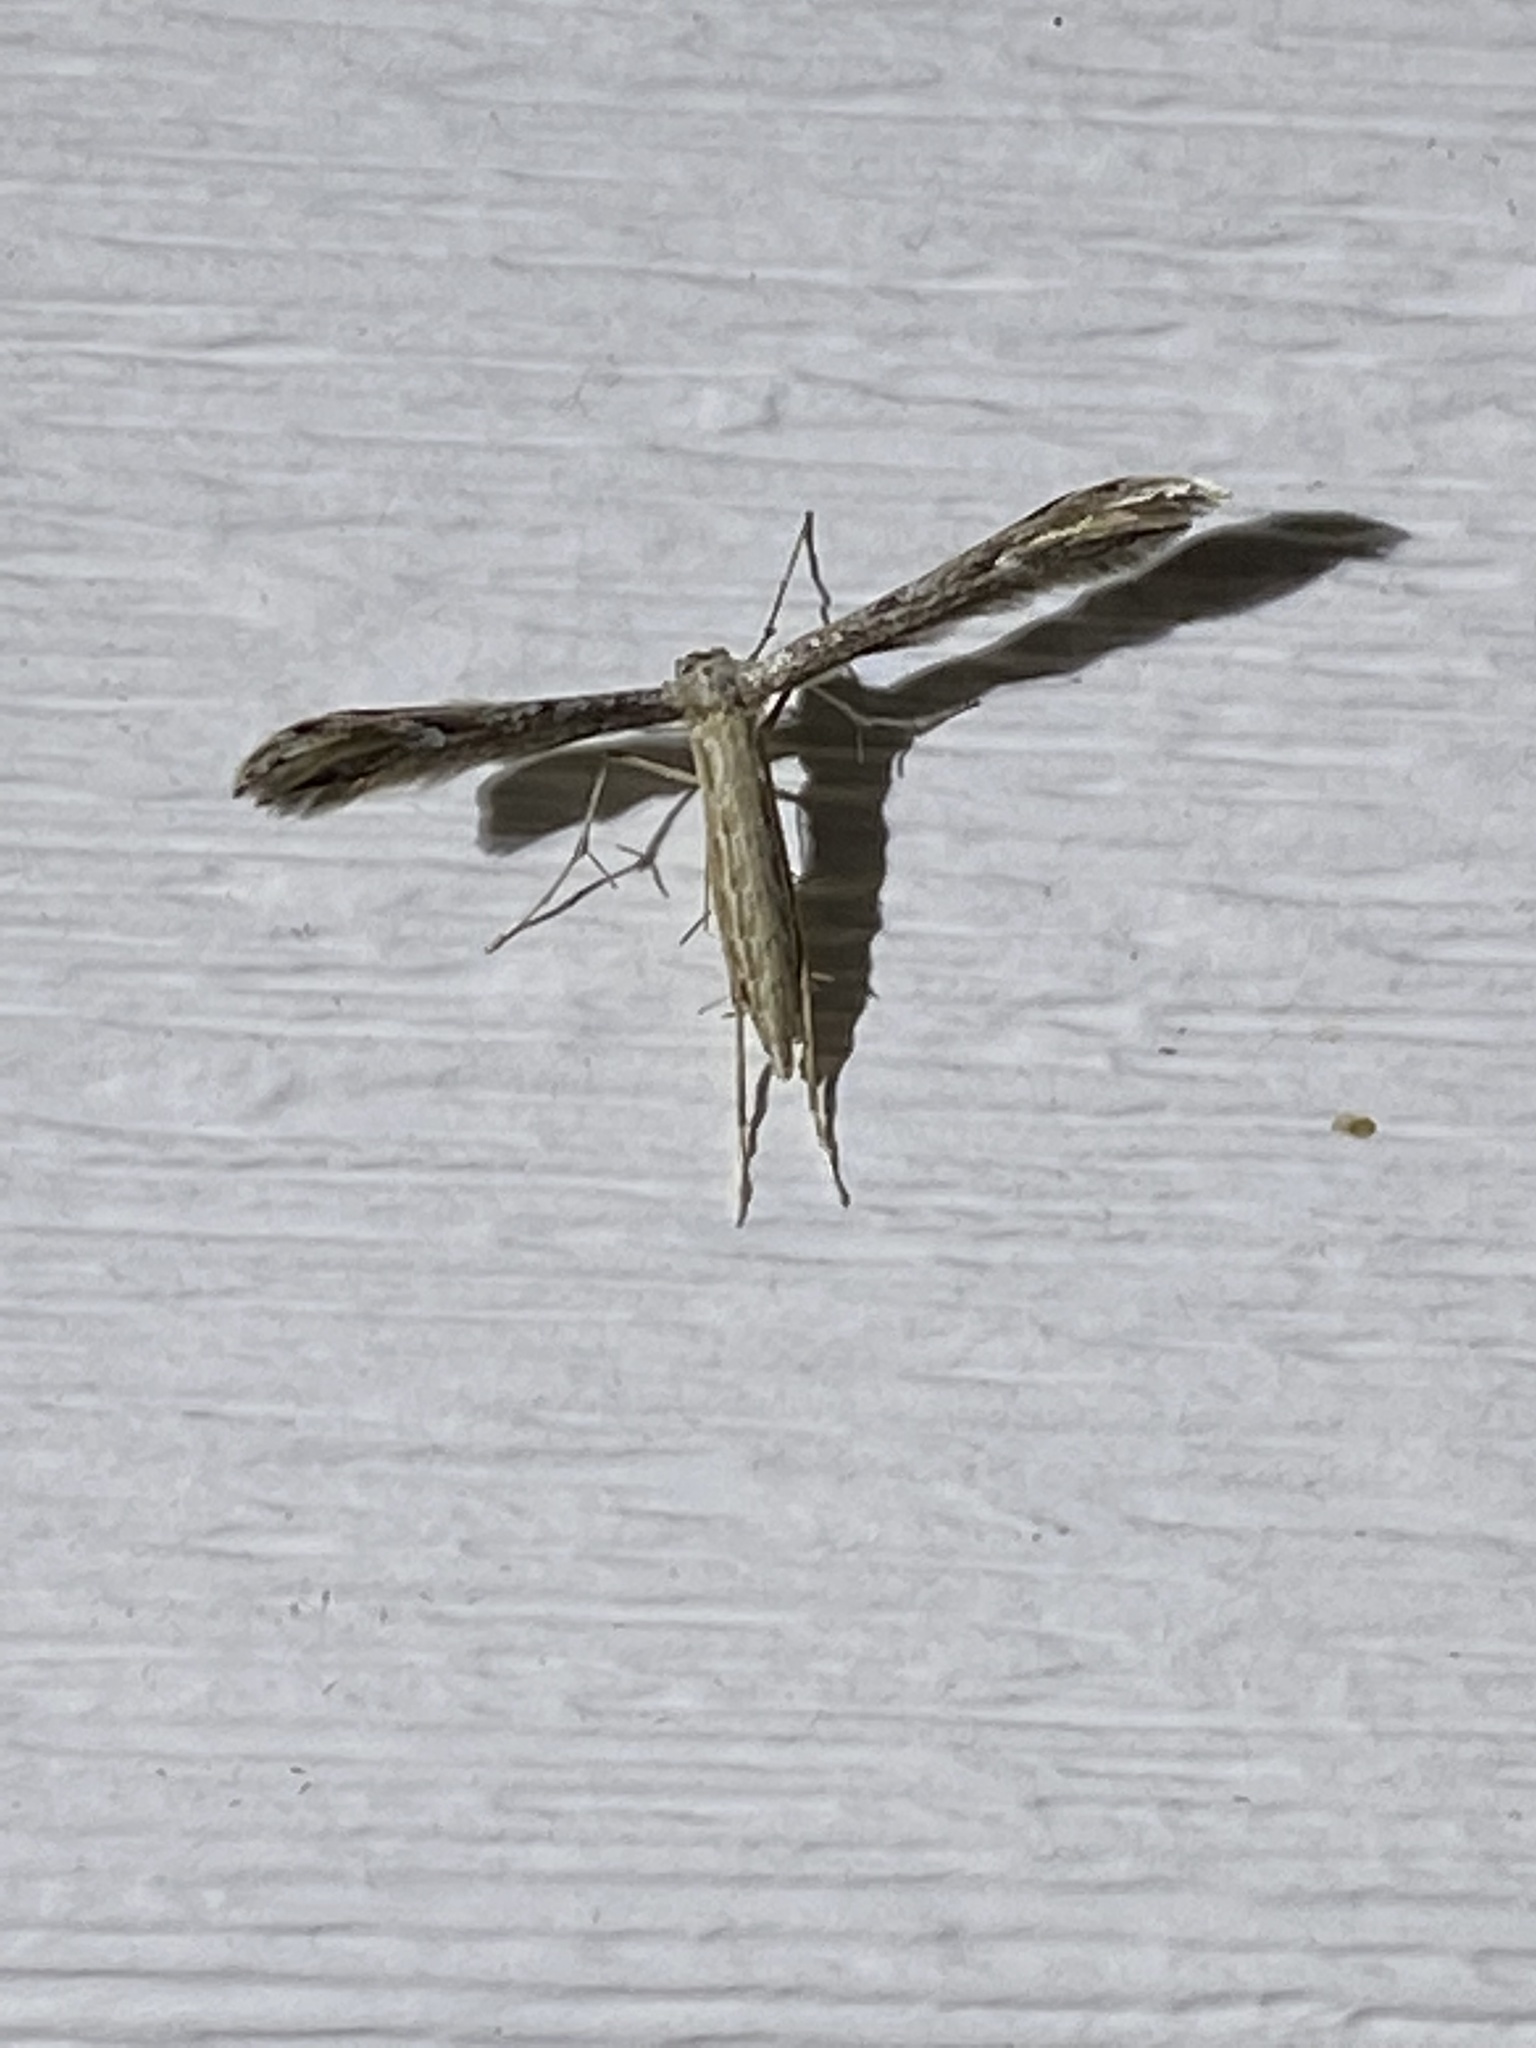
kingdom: Animalia
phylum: Arthropoda
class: Insecta
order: Lepidoptera
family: Pterophoridae
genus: Pselnophorus
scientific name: Pselnophorus belfragei
